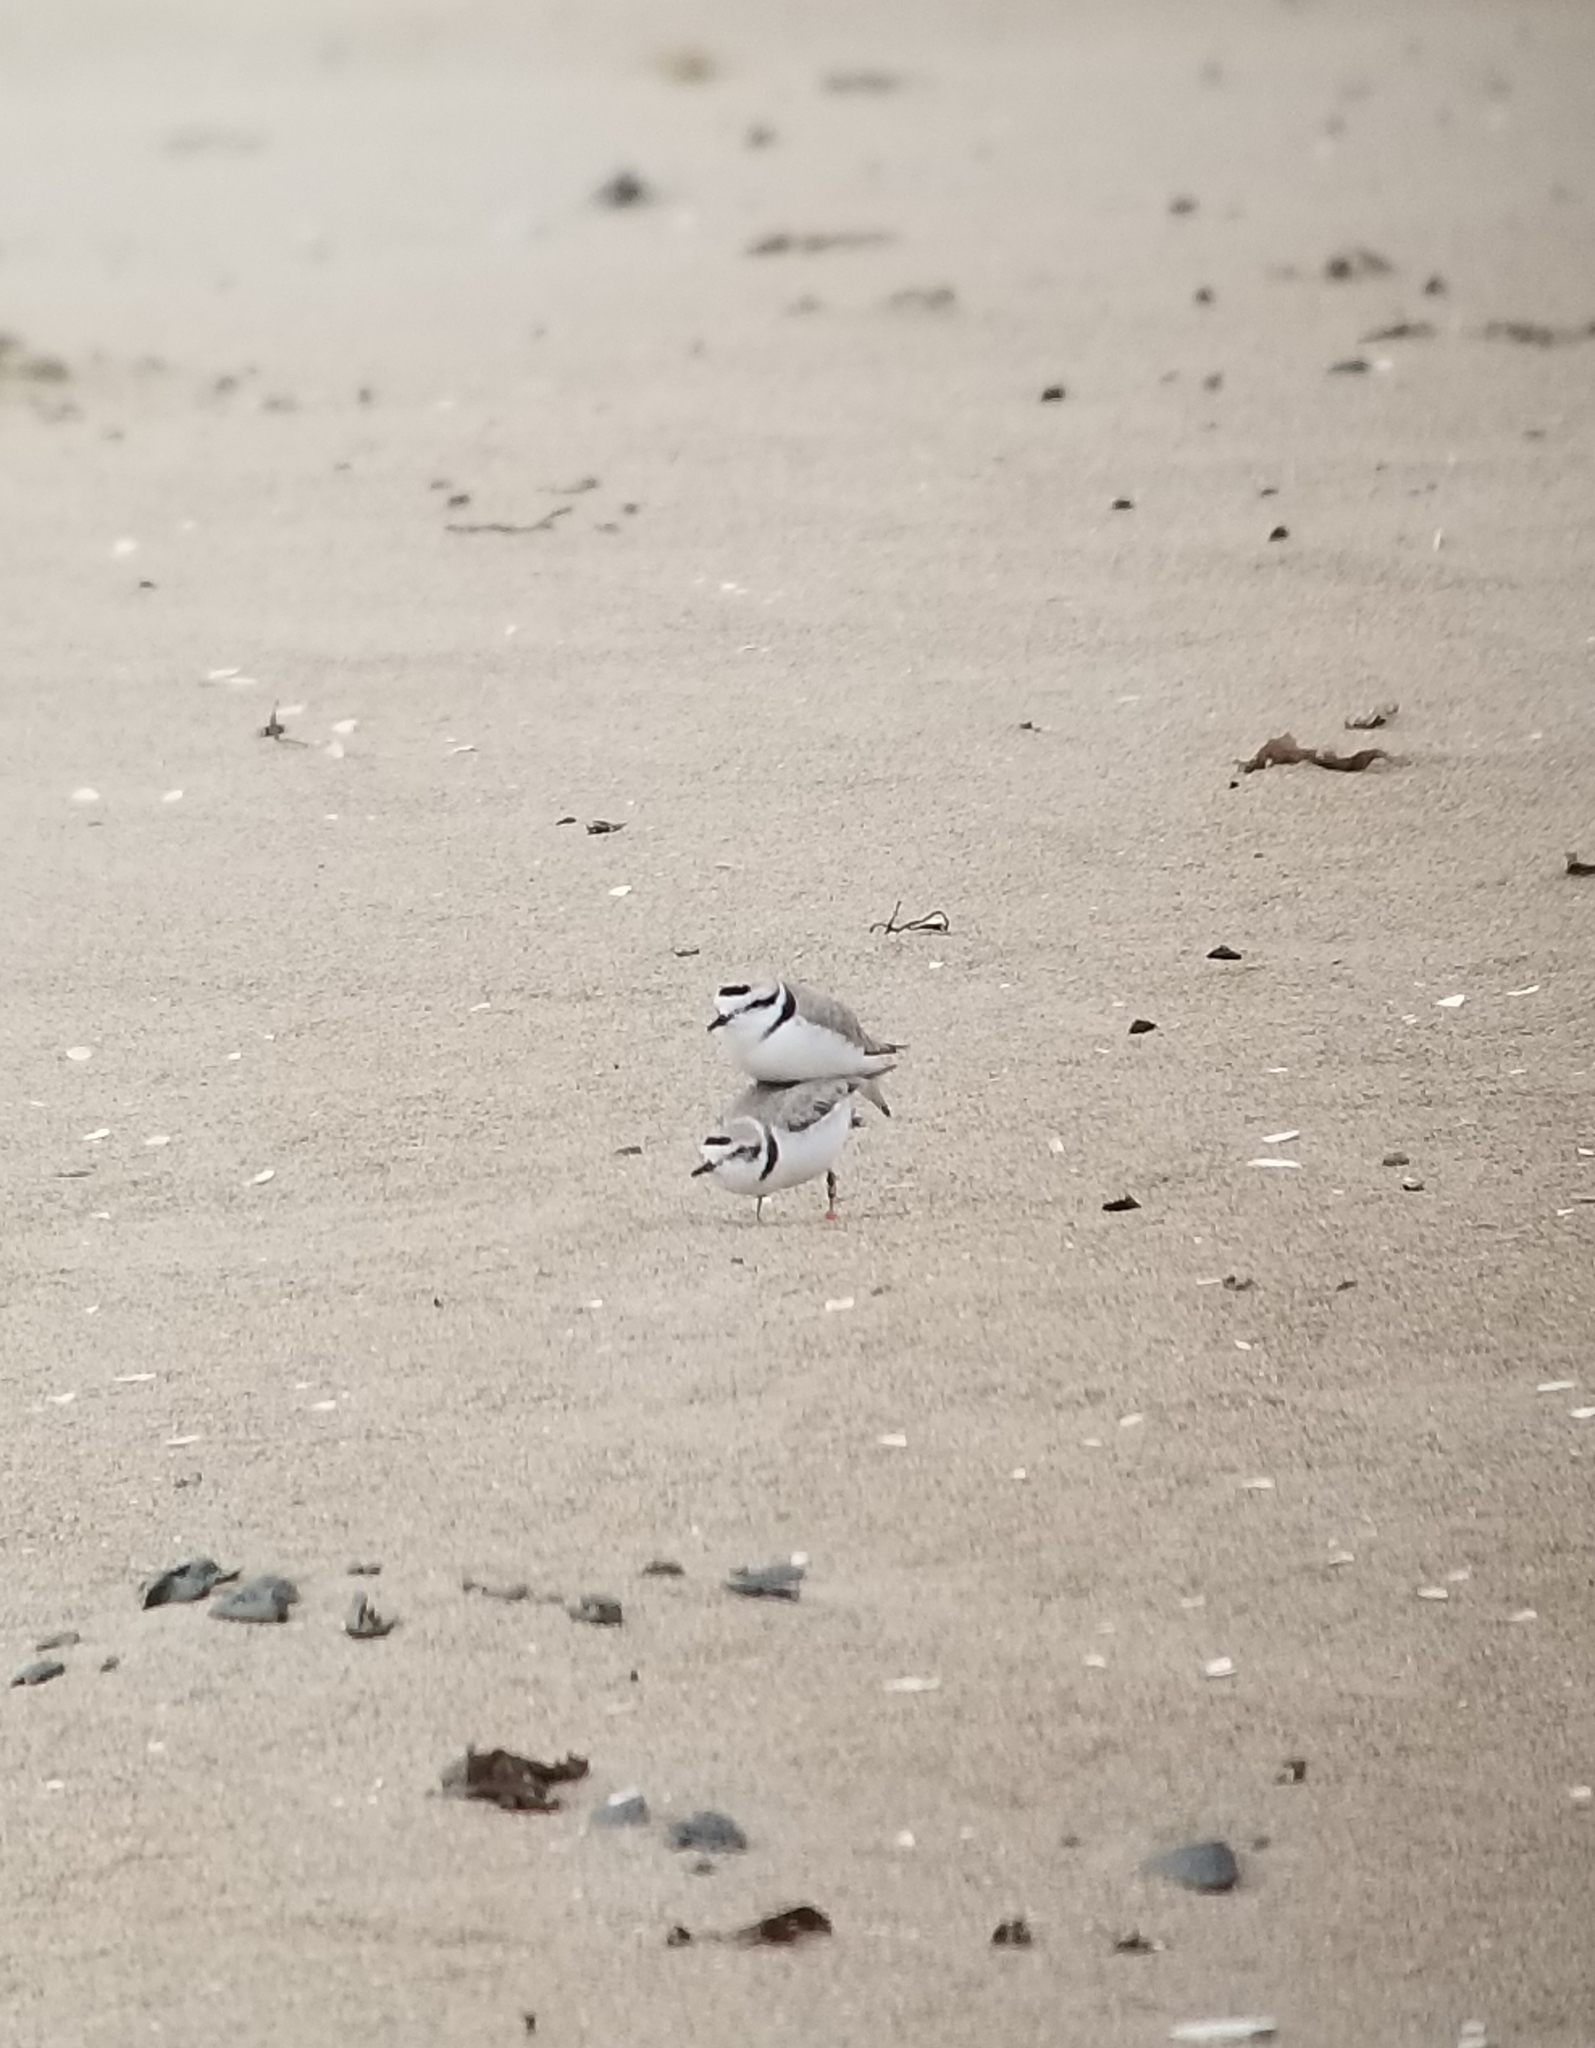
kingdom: Animalia
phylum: Chordata
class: Aves
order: Charadriiformes
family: Charadriidae
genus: Anarhynchus
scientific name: Anarhynchus
